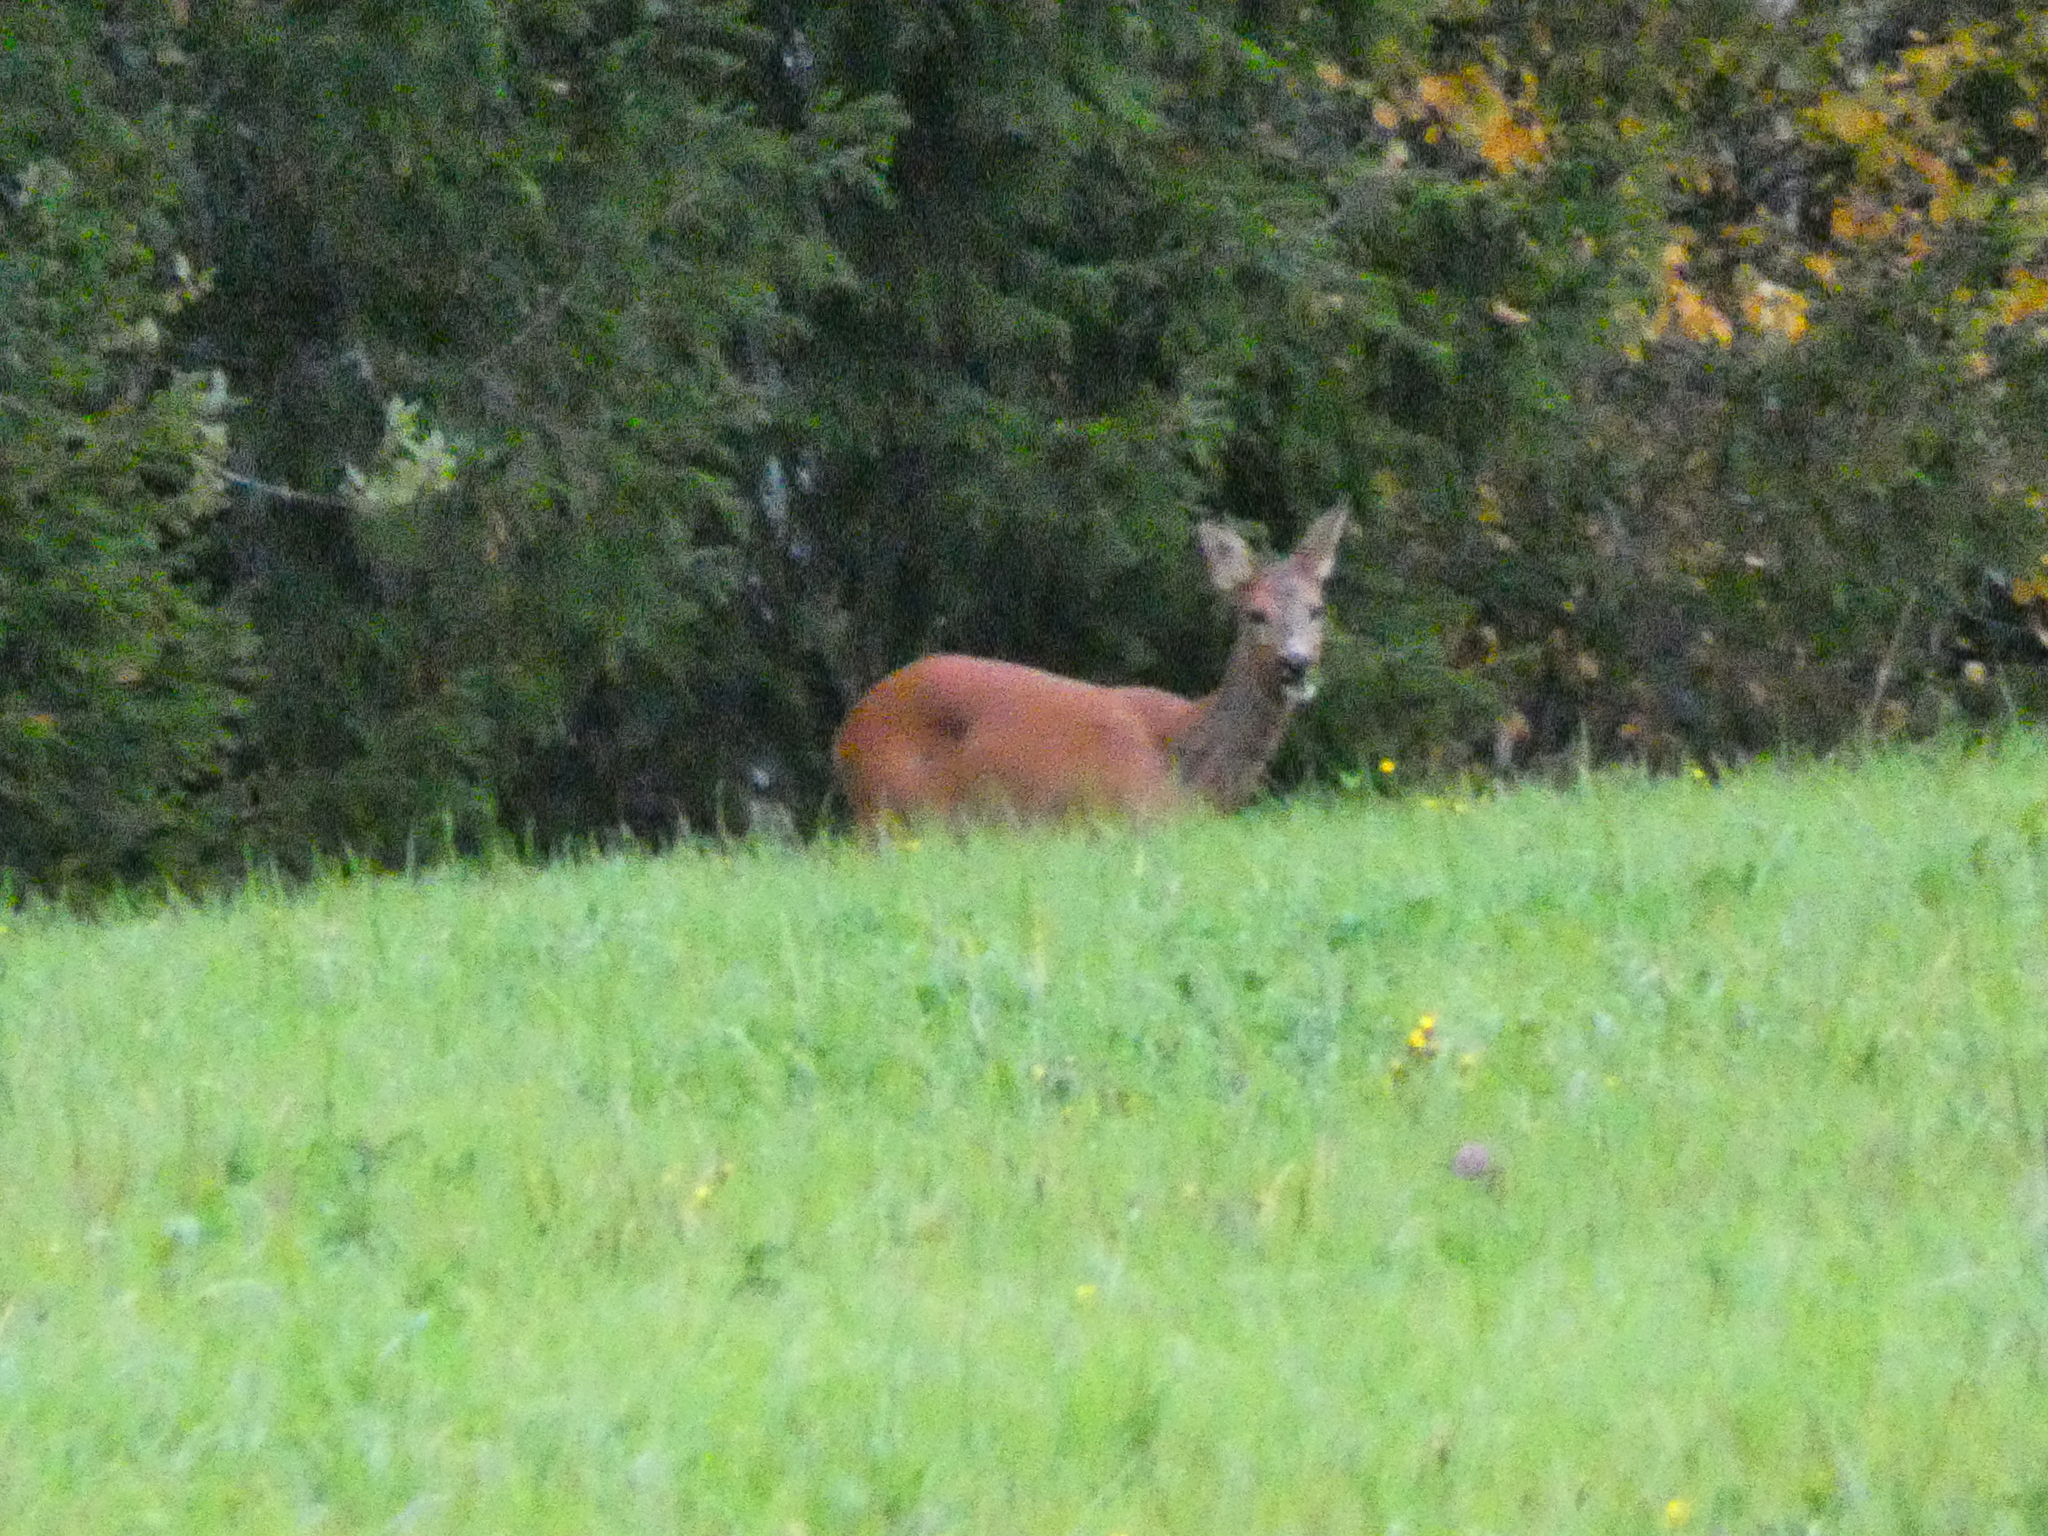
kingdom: Animalia
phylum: Chordata
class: Mammalia
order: Artiodactyla
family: Cervidae
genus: Capreolus
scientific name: Capreolus capreolus
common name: Western roe deer
